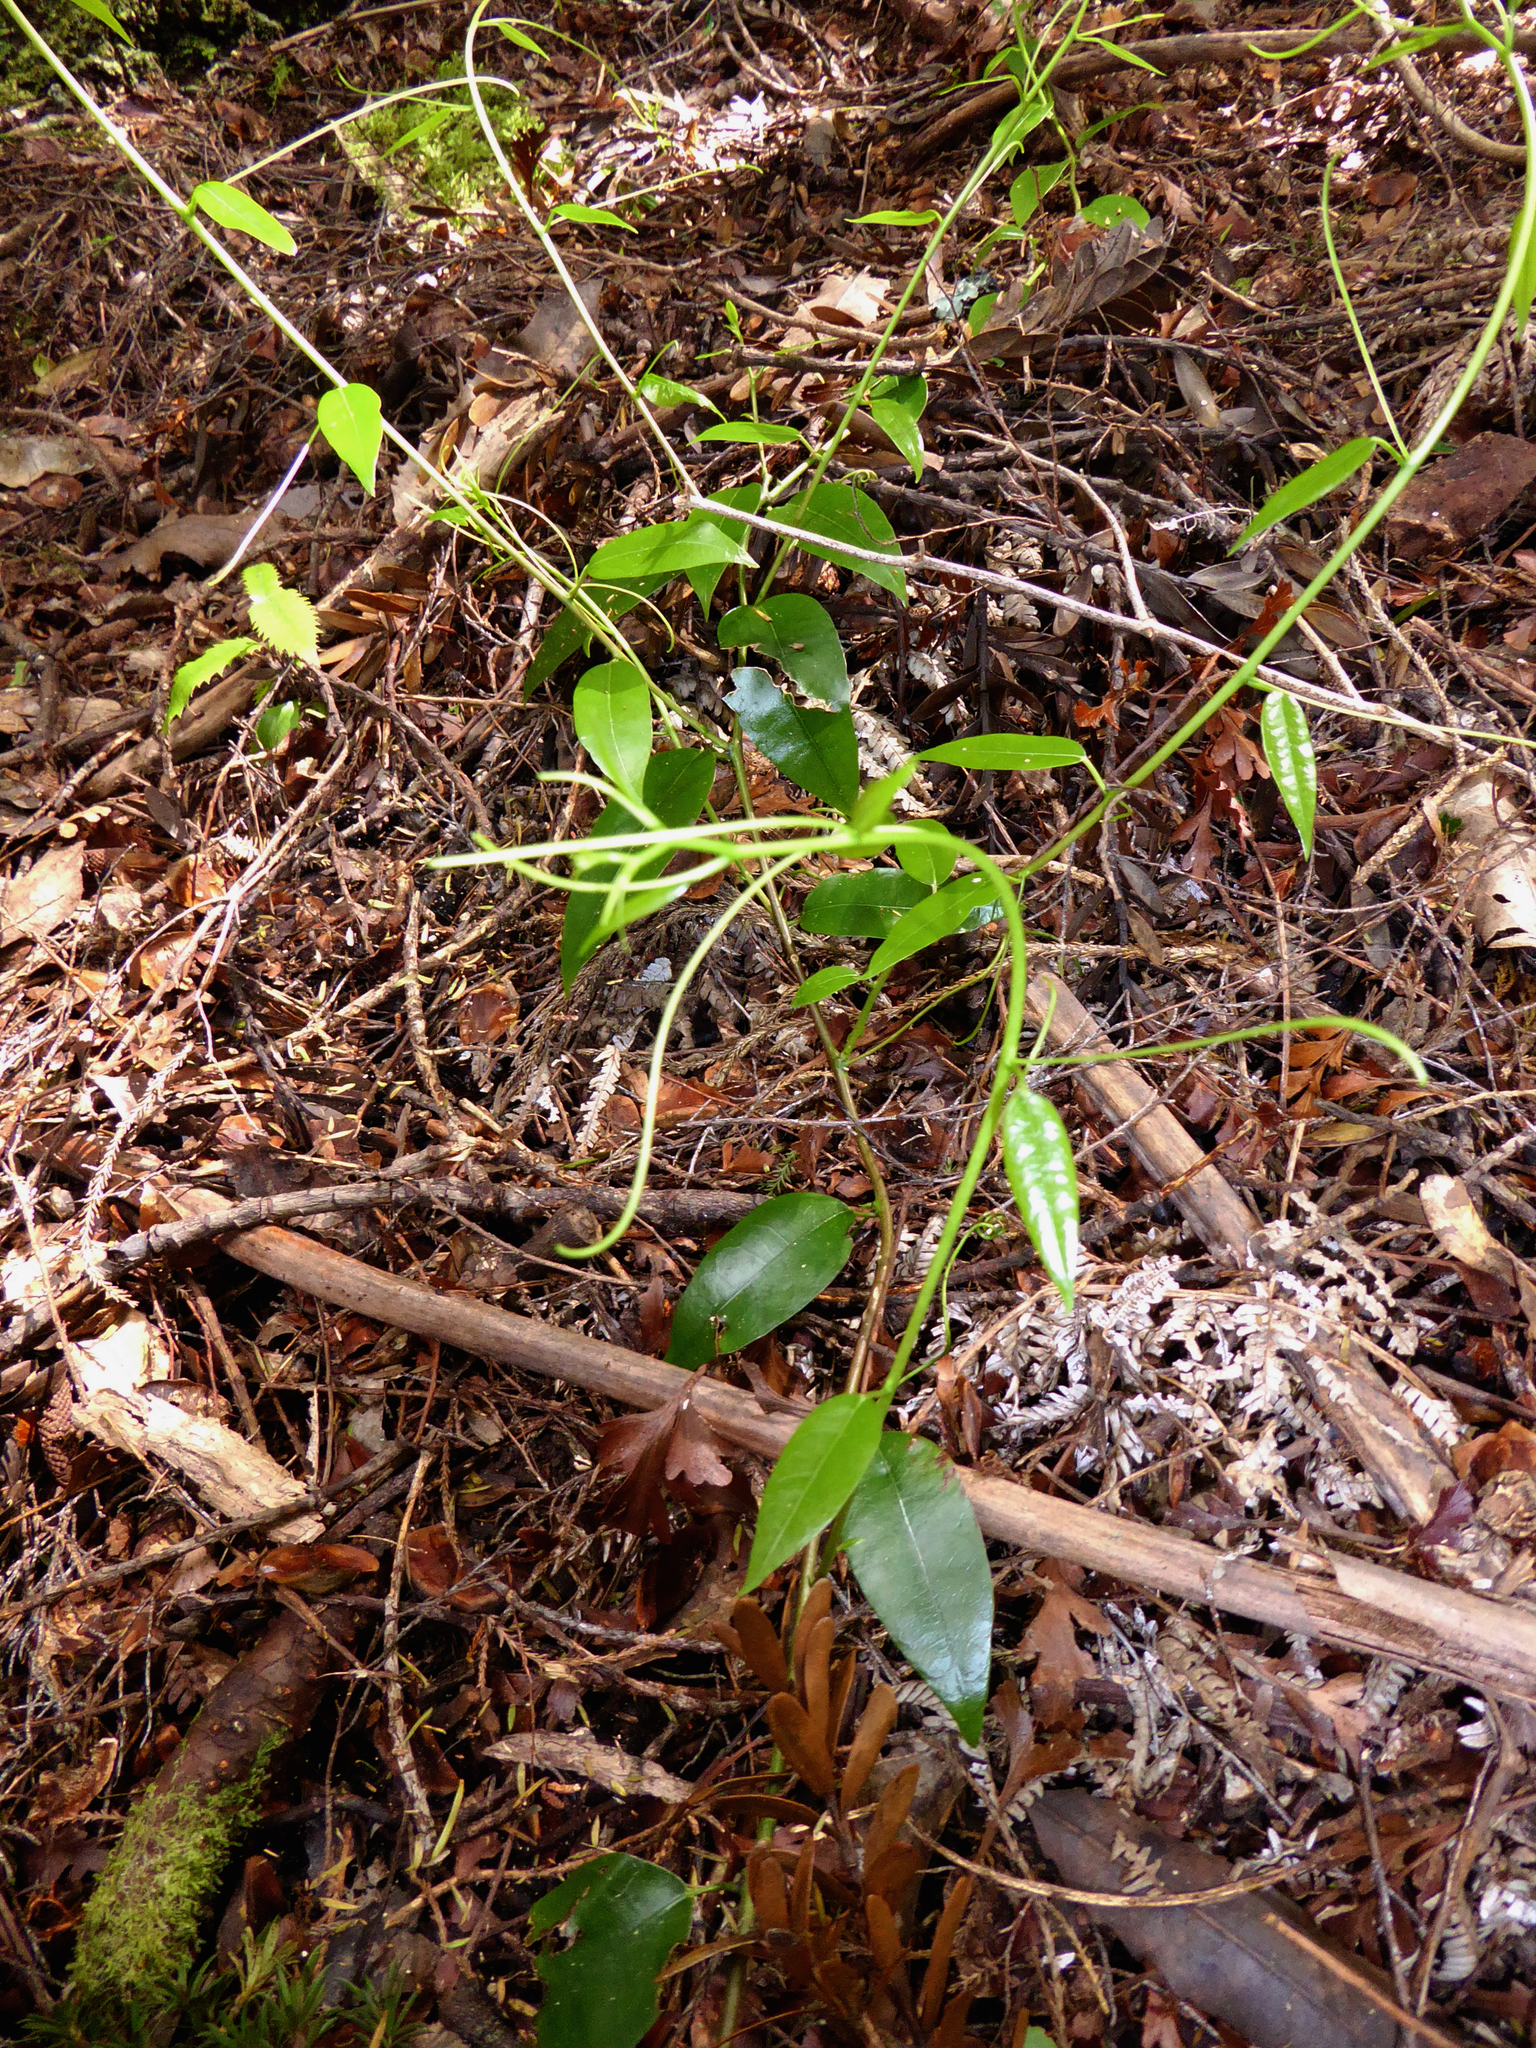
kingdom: Plantae
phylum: Tracheophyta
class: Magnoliopsida
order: Malpighiales
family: Passifloraceae
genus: Passiflora
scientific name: Passiflora tetrandra
